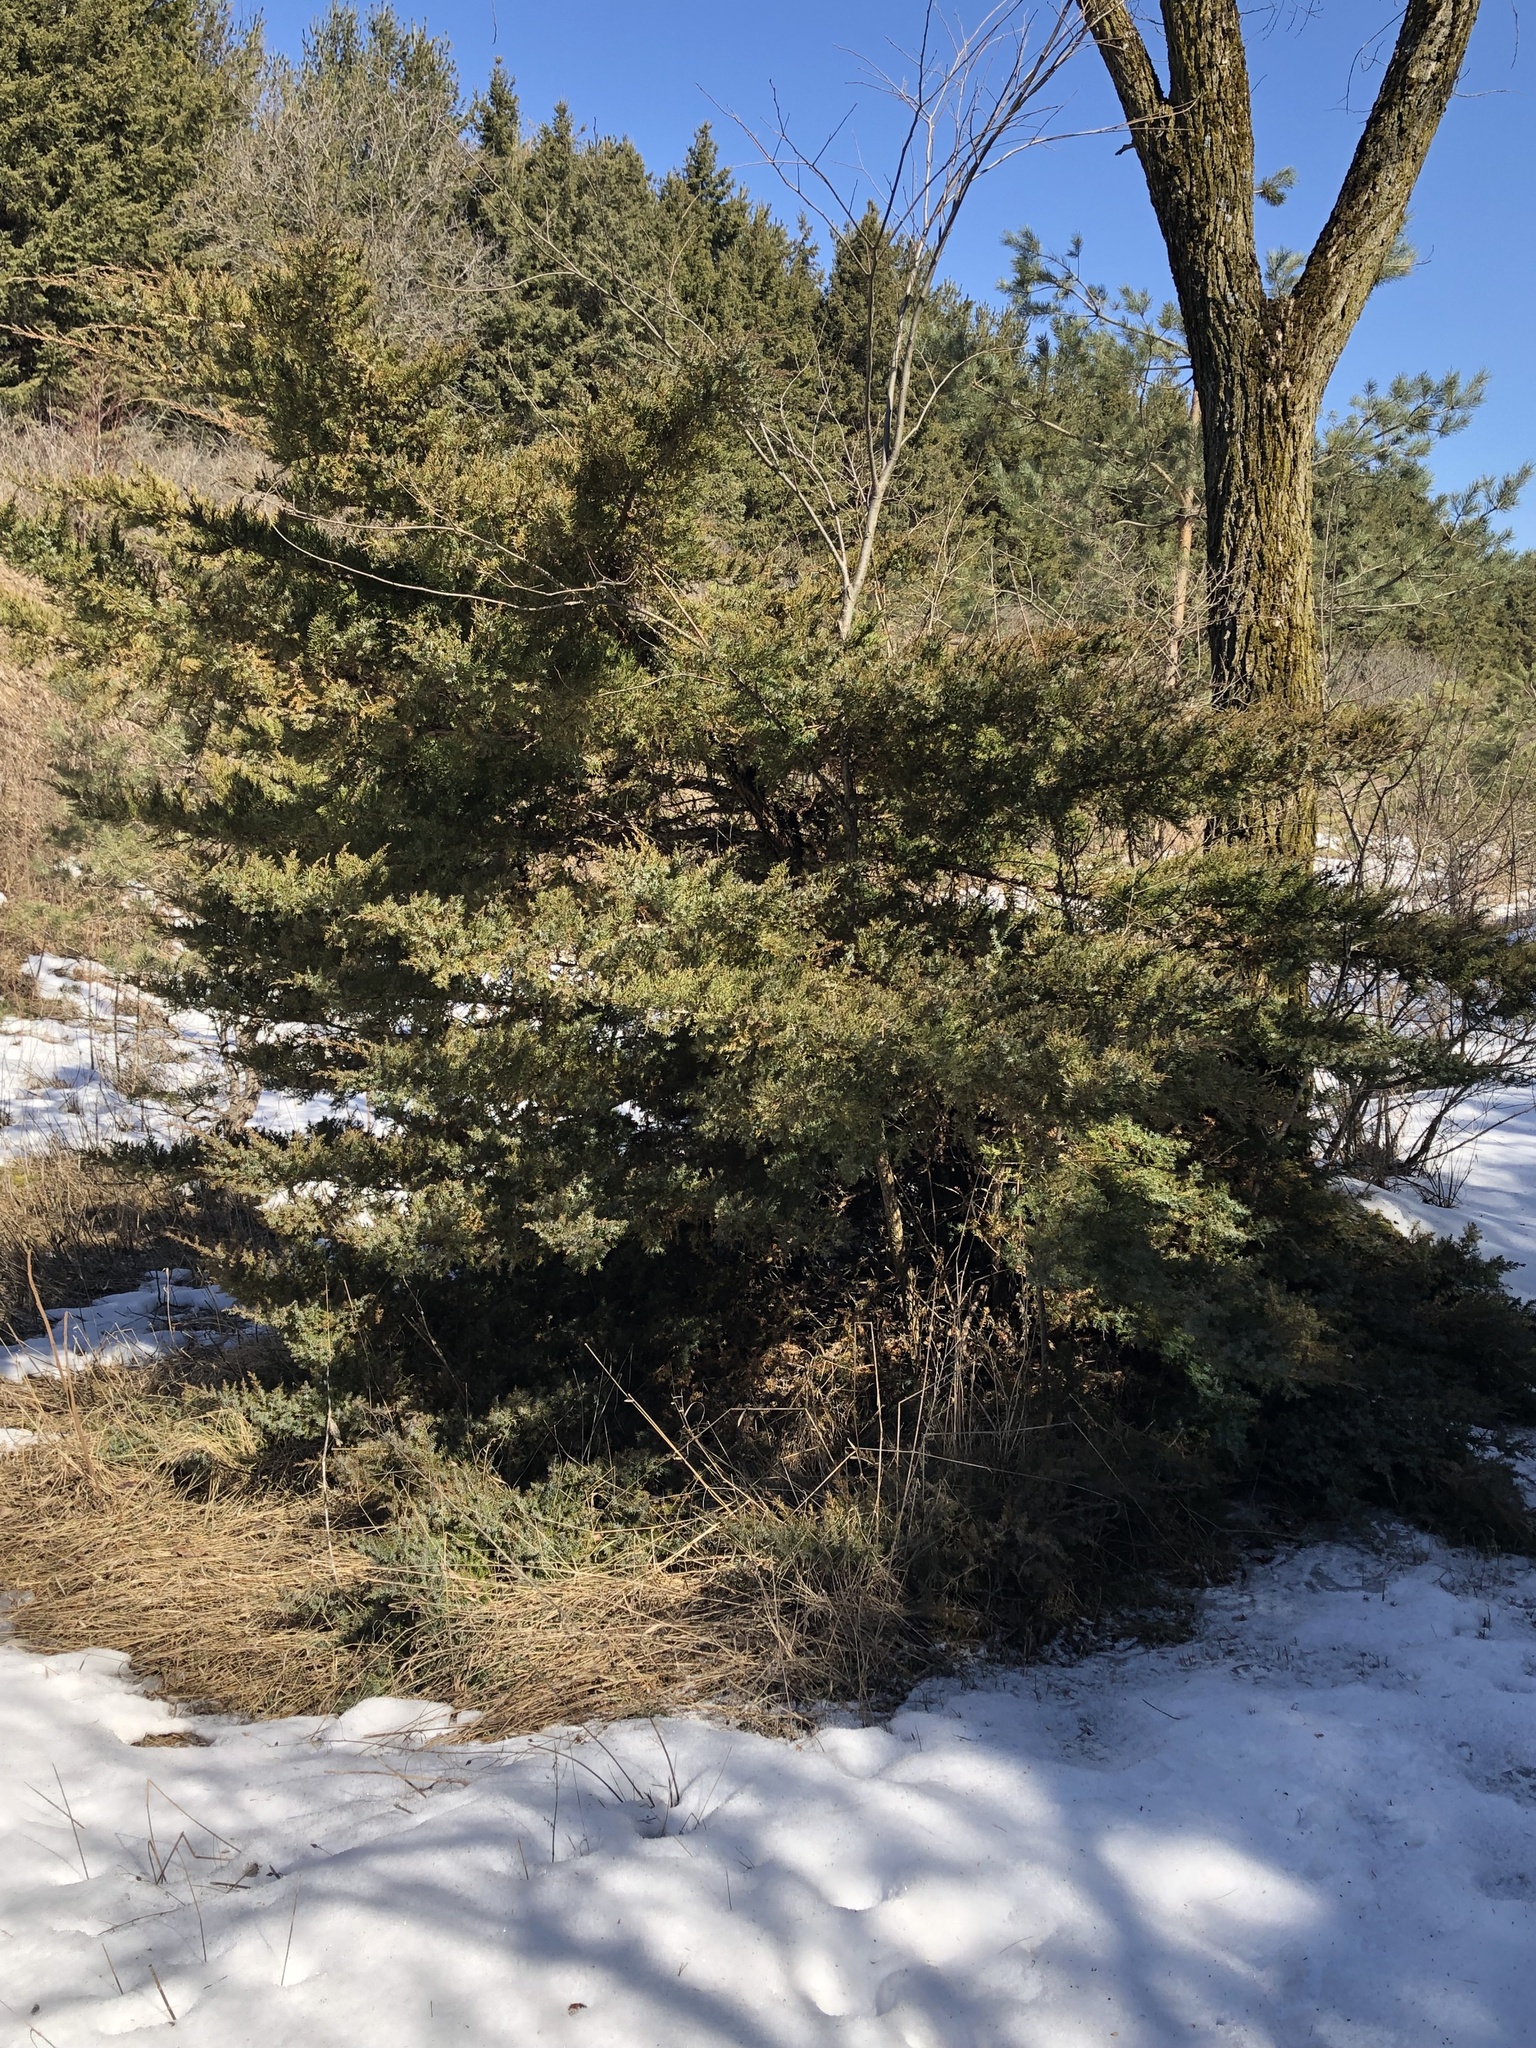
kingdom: Plantae
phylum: Tracheophyta
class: Pinopsida
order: Pinales
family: Cupressaceae
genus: Juniperus
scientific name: Juniperus virginiana
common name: Red juniper
